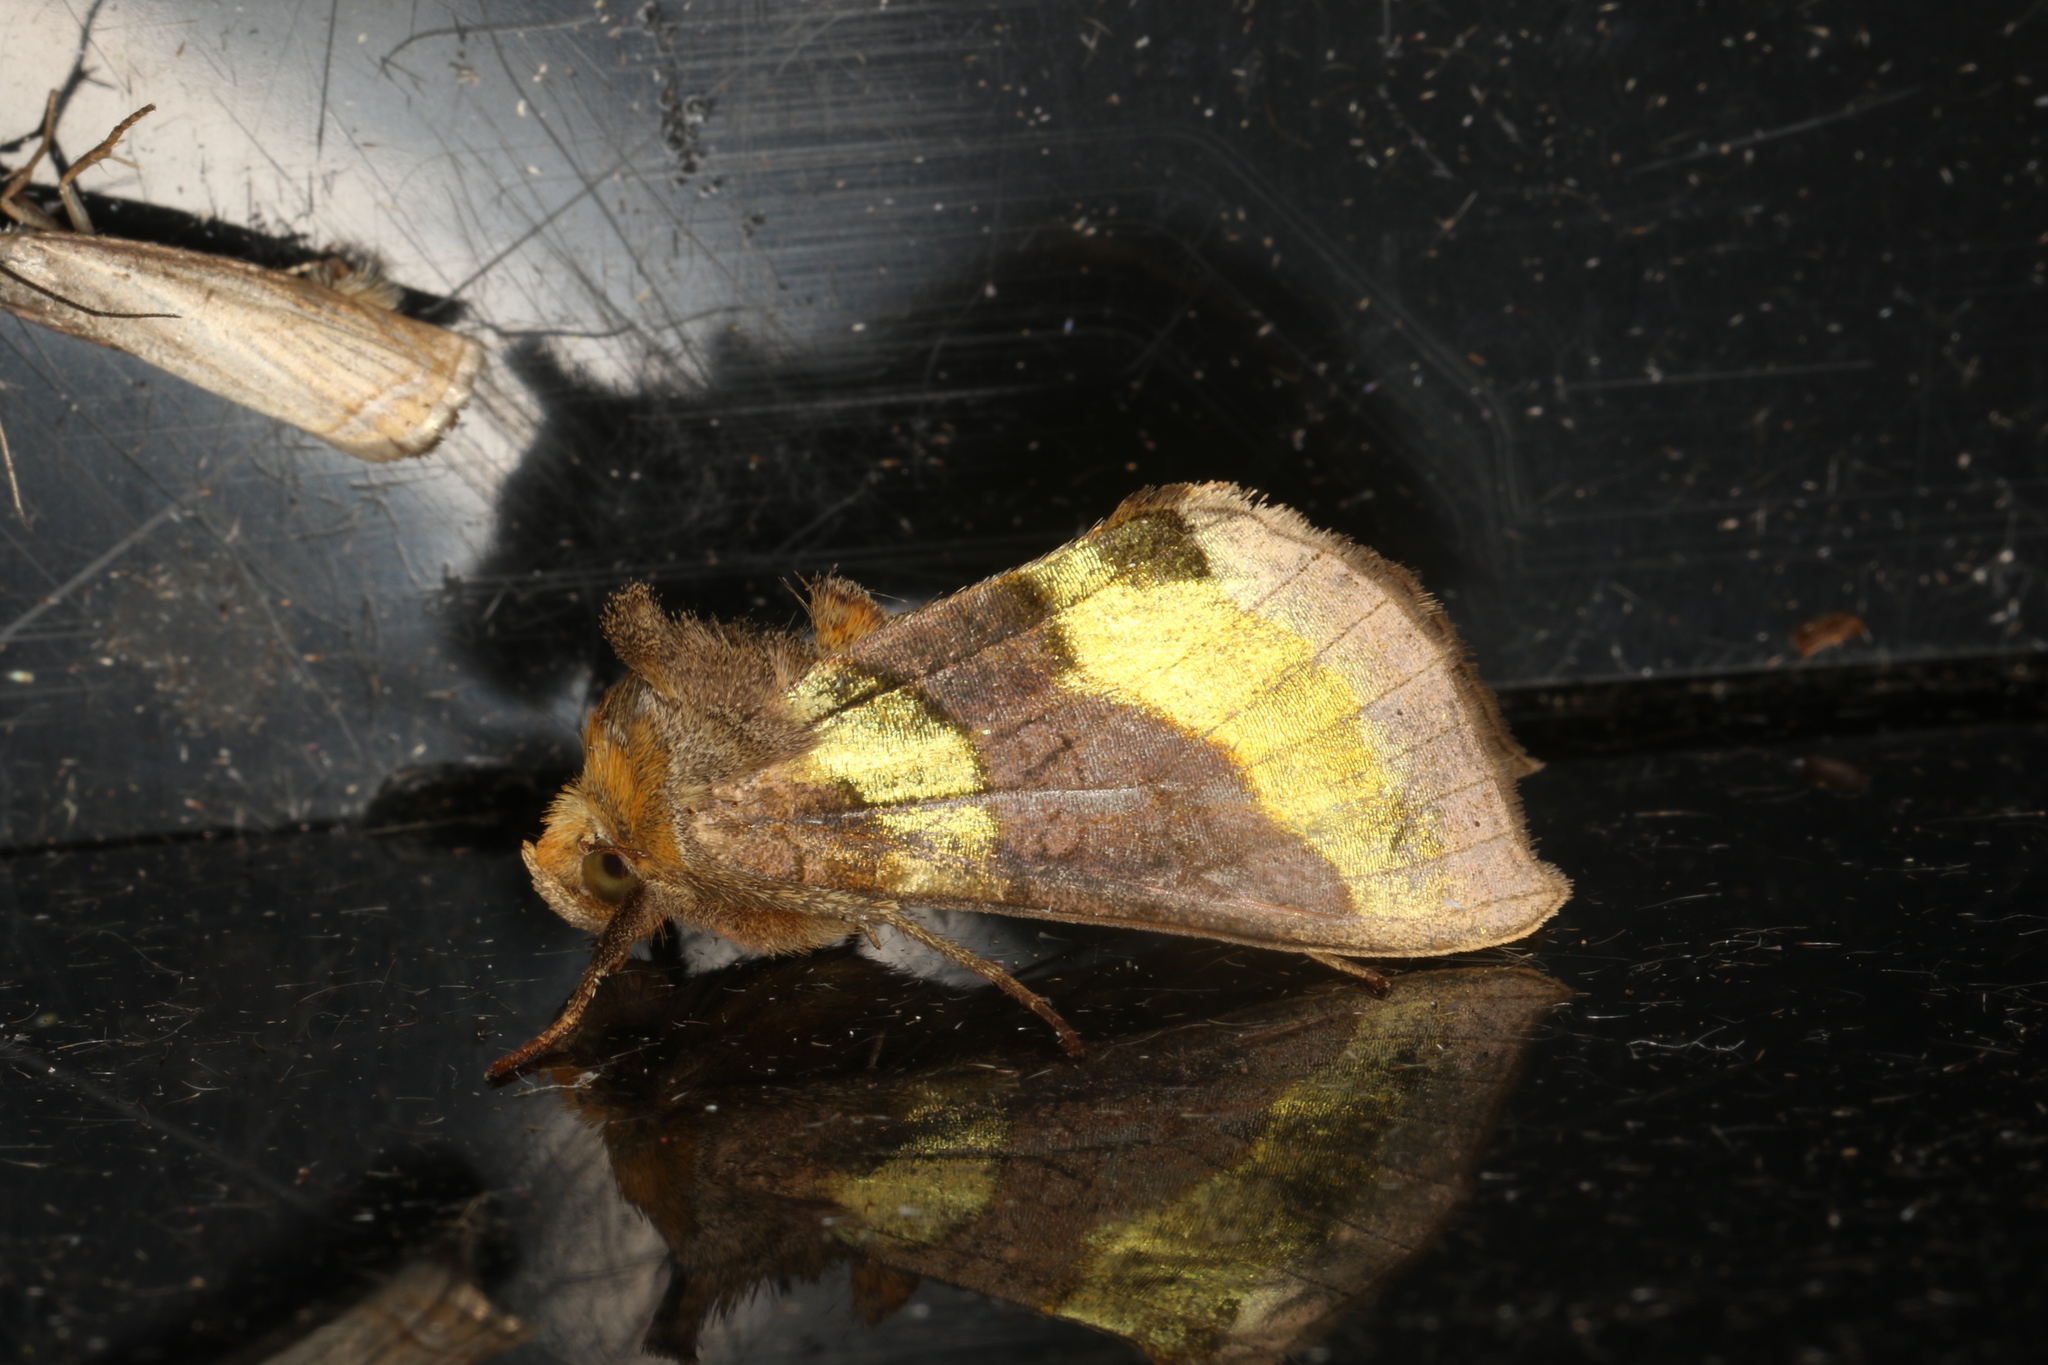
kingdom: Animalia
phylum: Arthropoda
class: Insecta
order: Lepidoptera
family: Noctuidae
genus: Diachrysia
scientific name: Diachrysia chrysitis
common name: Burnished brass
